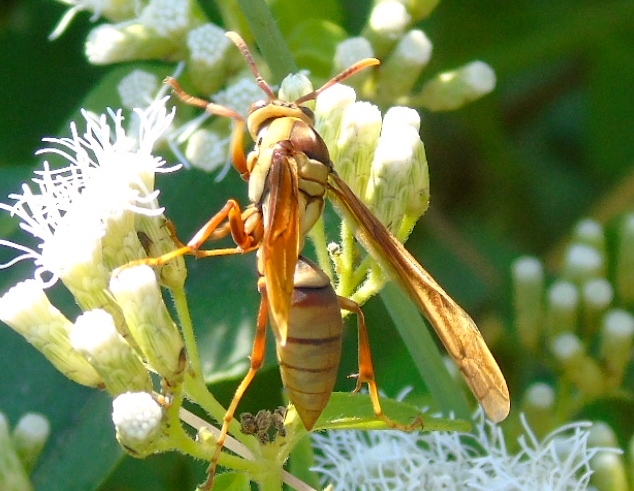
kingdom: Animalia
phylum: Arthropoda
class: Insecta
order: Hymenoptera
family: Eumenidae
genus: Polistes
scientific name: Polistes major
